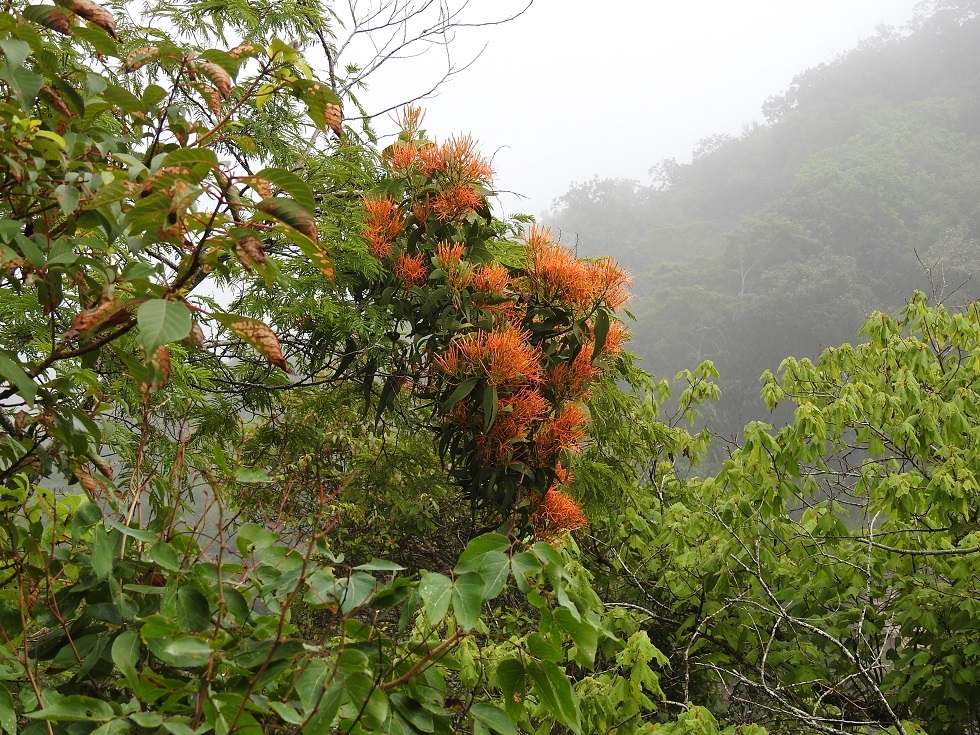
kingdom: Plantae
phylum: Tracheophyta
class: Magnoliopsida
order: Santalales
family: Loranthaceae
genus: Psittacanthus
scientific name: Psittacanthus schiedeanus
